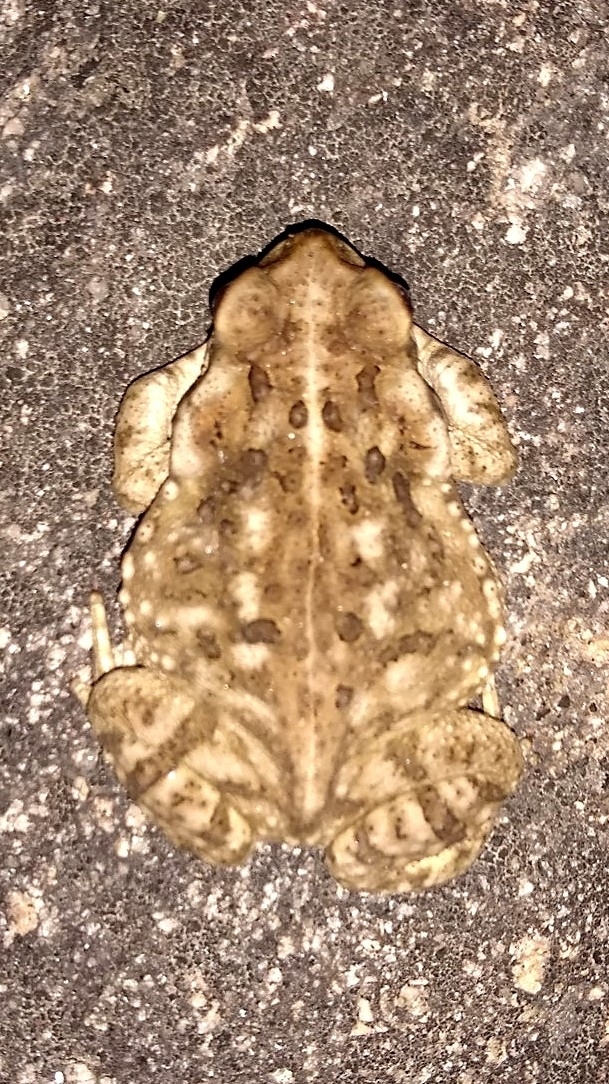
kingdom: Animalia
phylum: Chordata
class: Amphibia
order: Anura
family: Bufonidae
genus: Rhinella
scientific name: Rhinella arenarum
